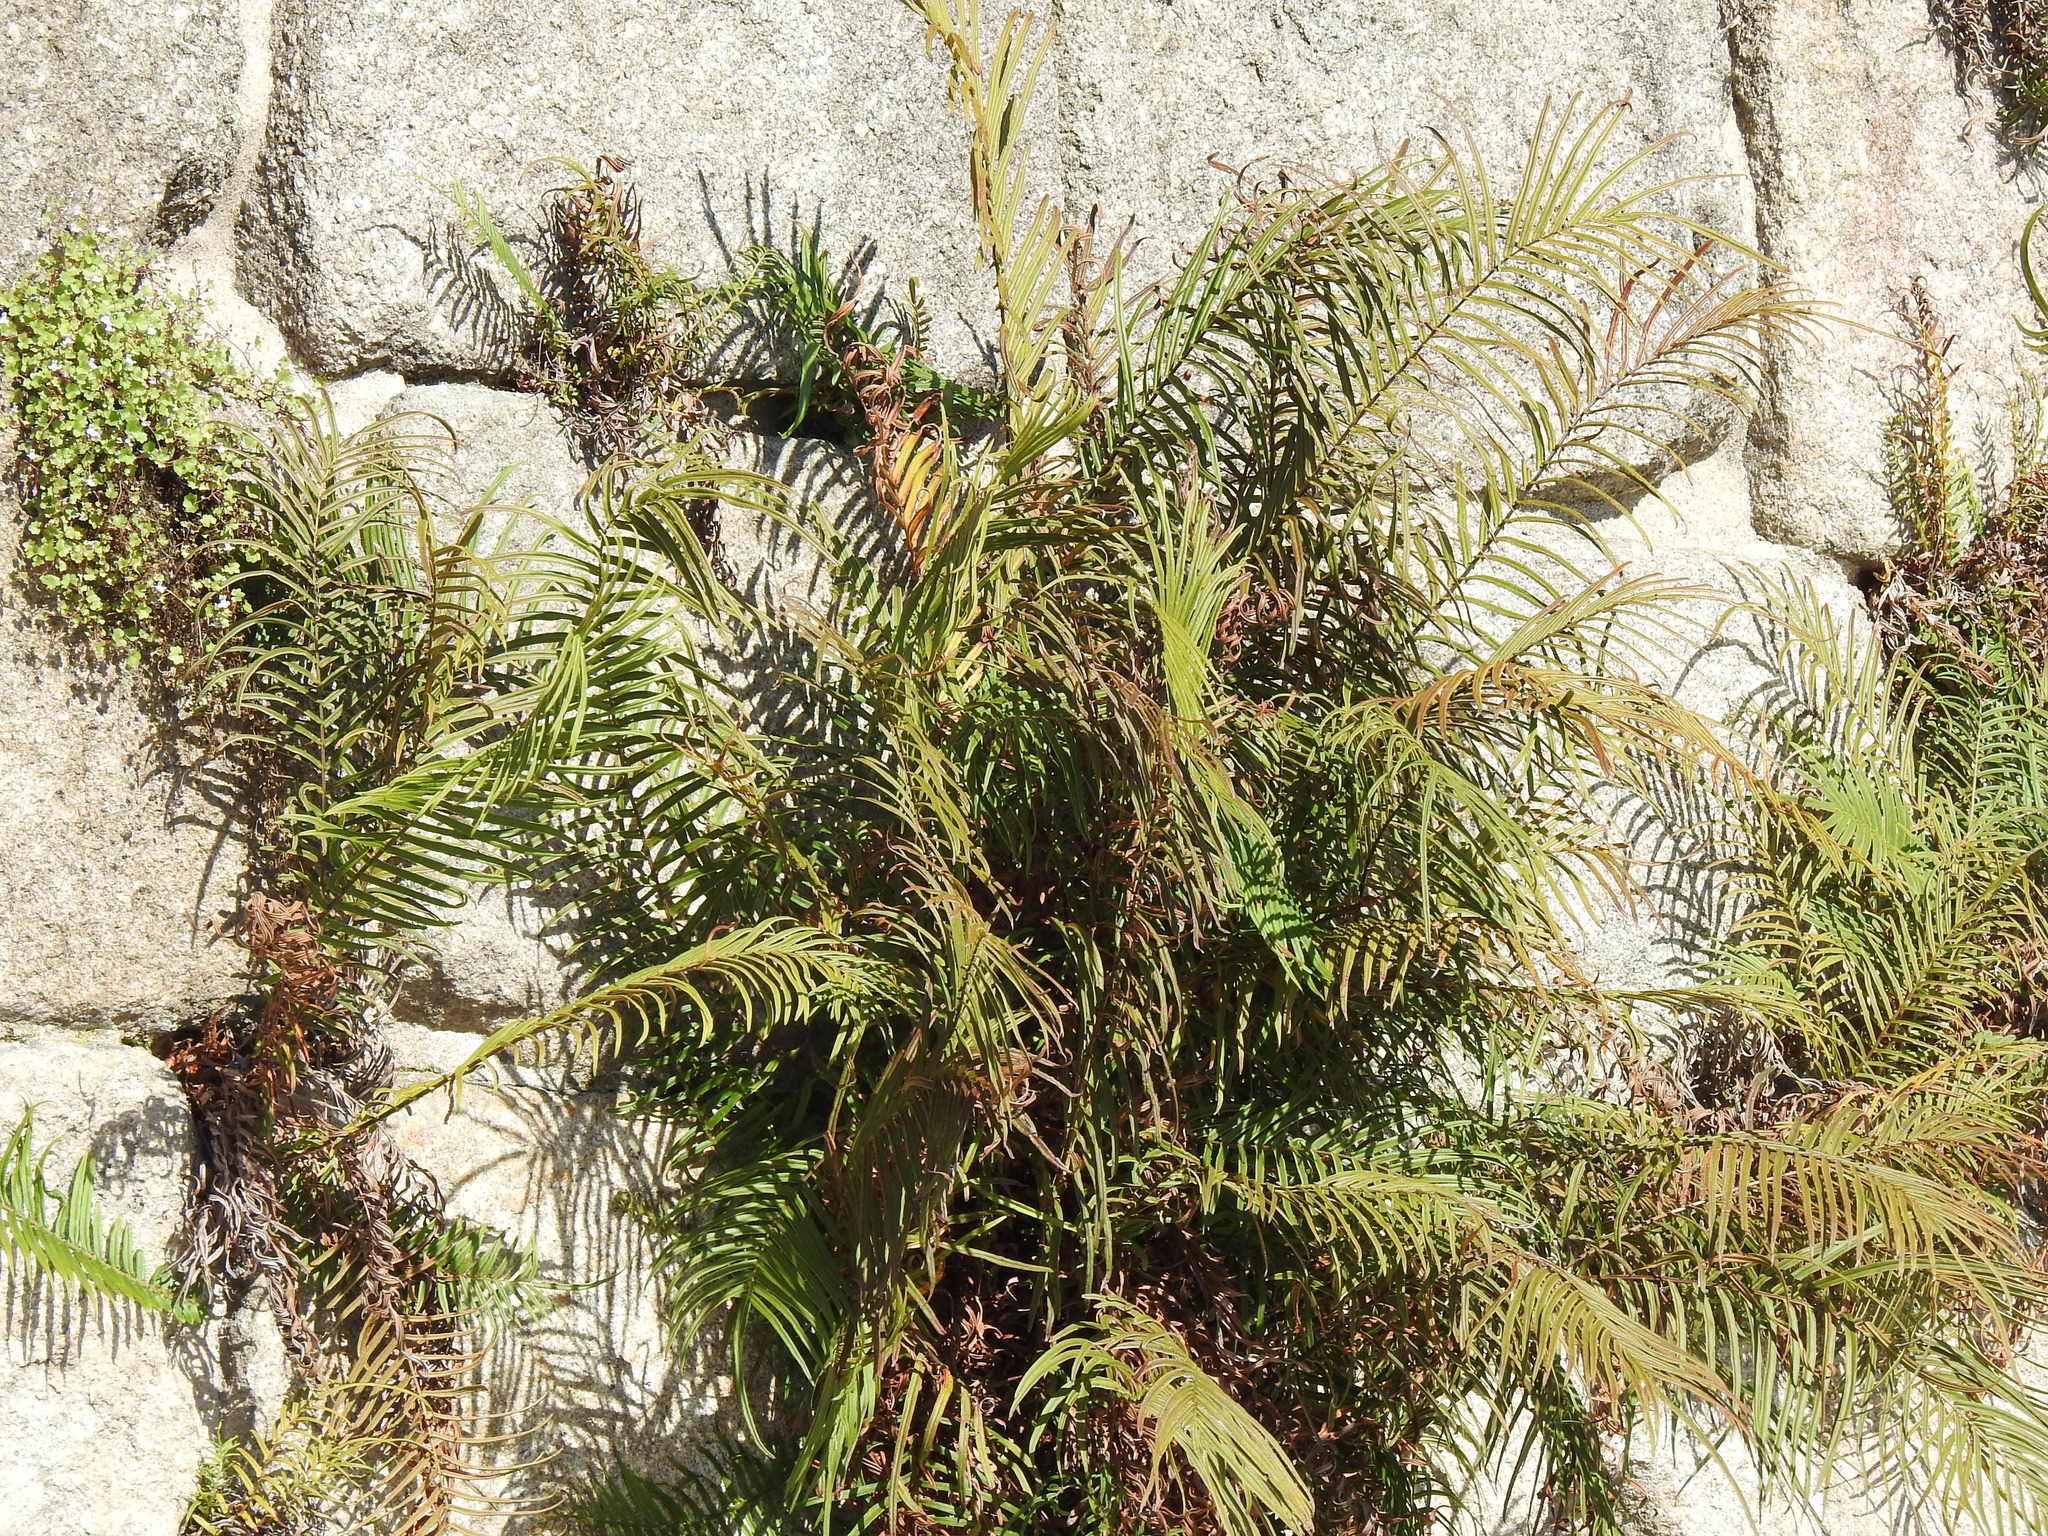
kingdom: Plantae
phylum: Tracheophyta
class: Polypodiopsida
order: Polypodiales
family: Pteridaceae
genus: Pteris
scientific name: Pteris vittata
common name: Ladder brake
